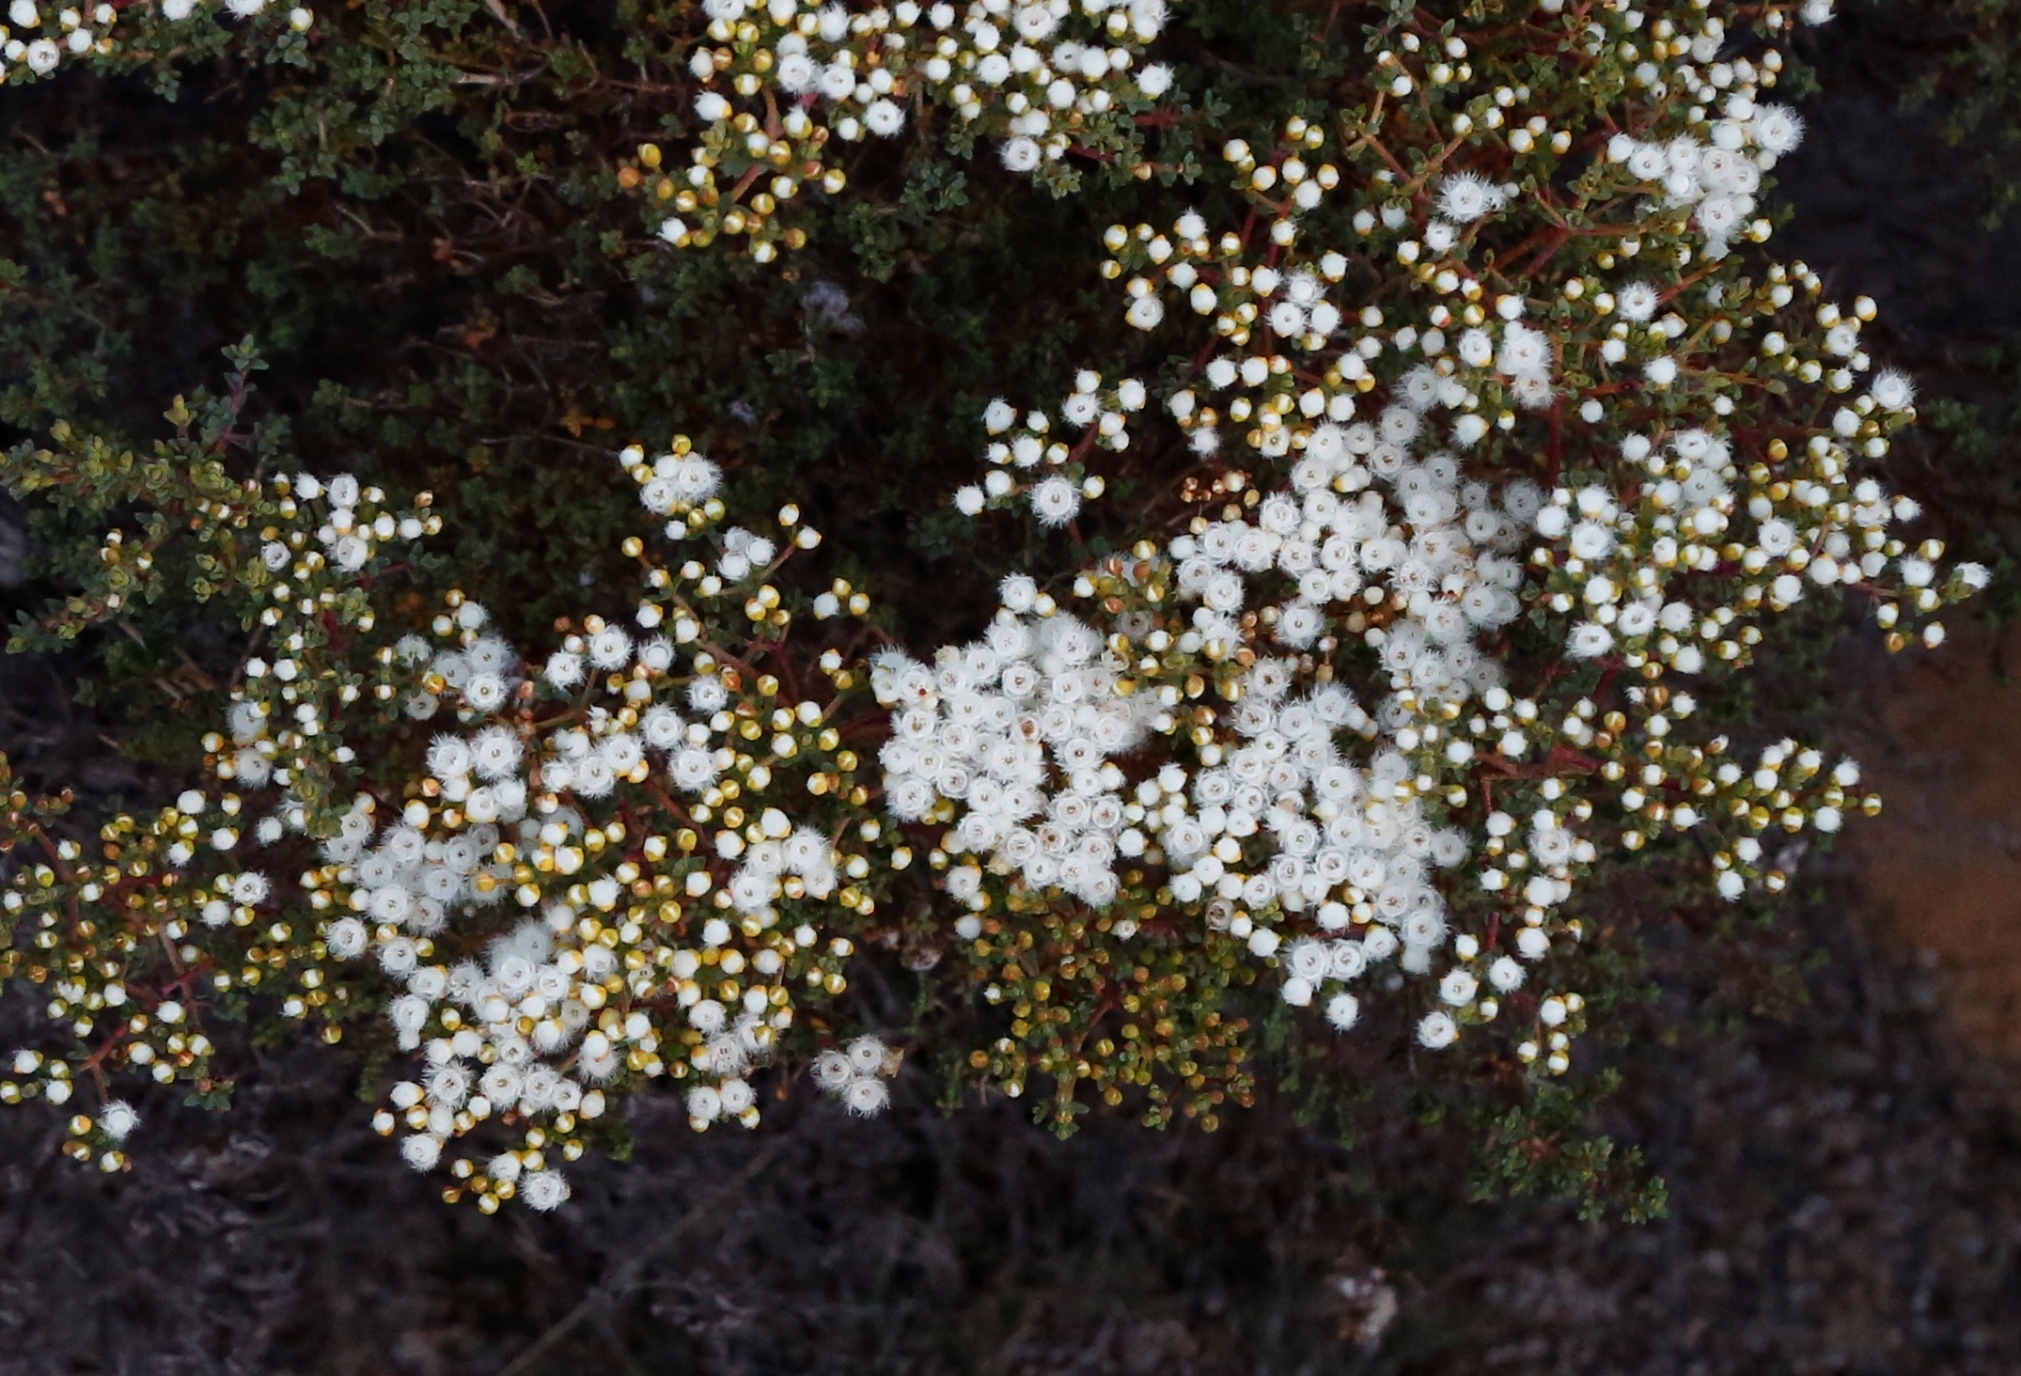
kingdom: Plantae
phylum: Tracheophyta
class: Magnoliopsida
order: Myrtales
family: Myrtaceae
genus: Verticordia
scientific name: Verticordia eriocephala
